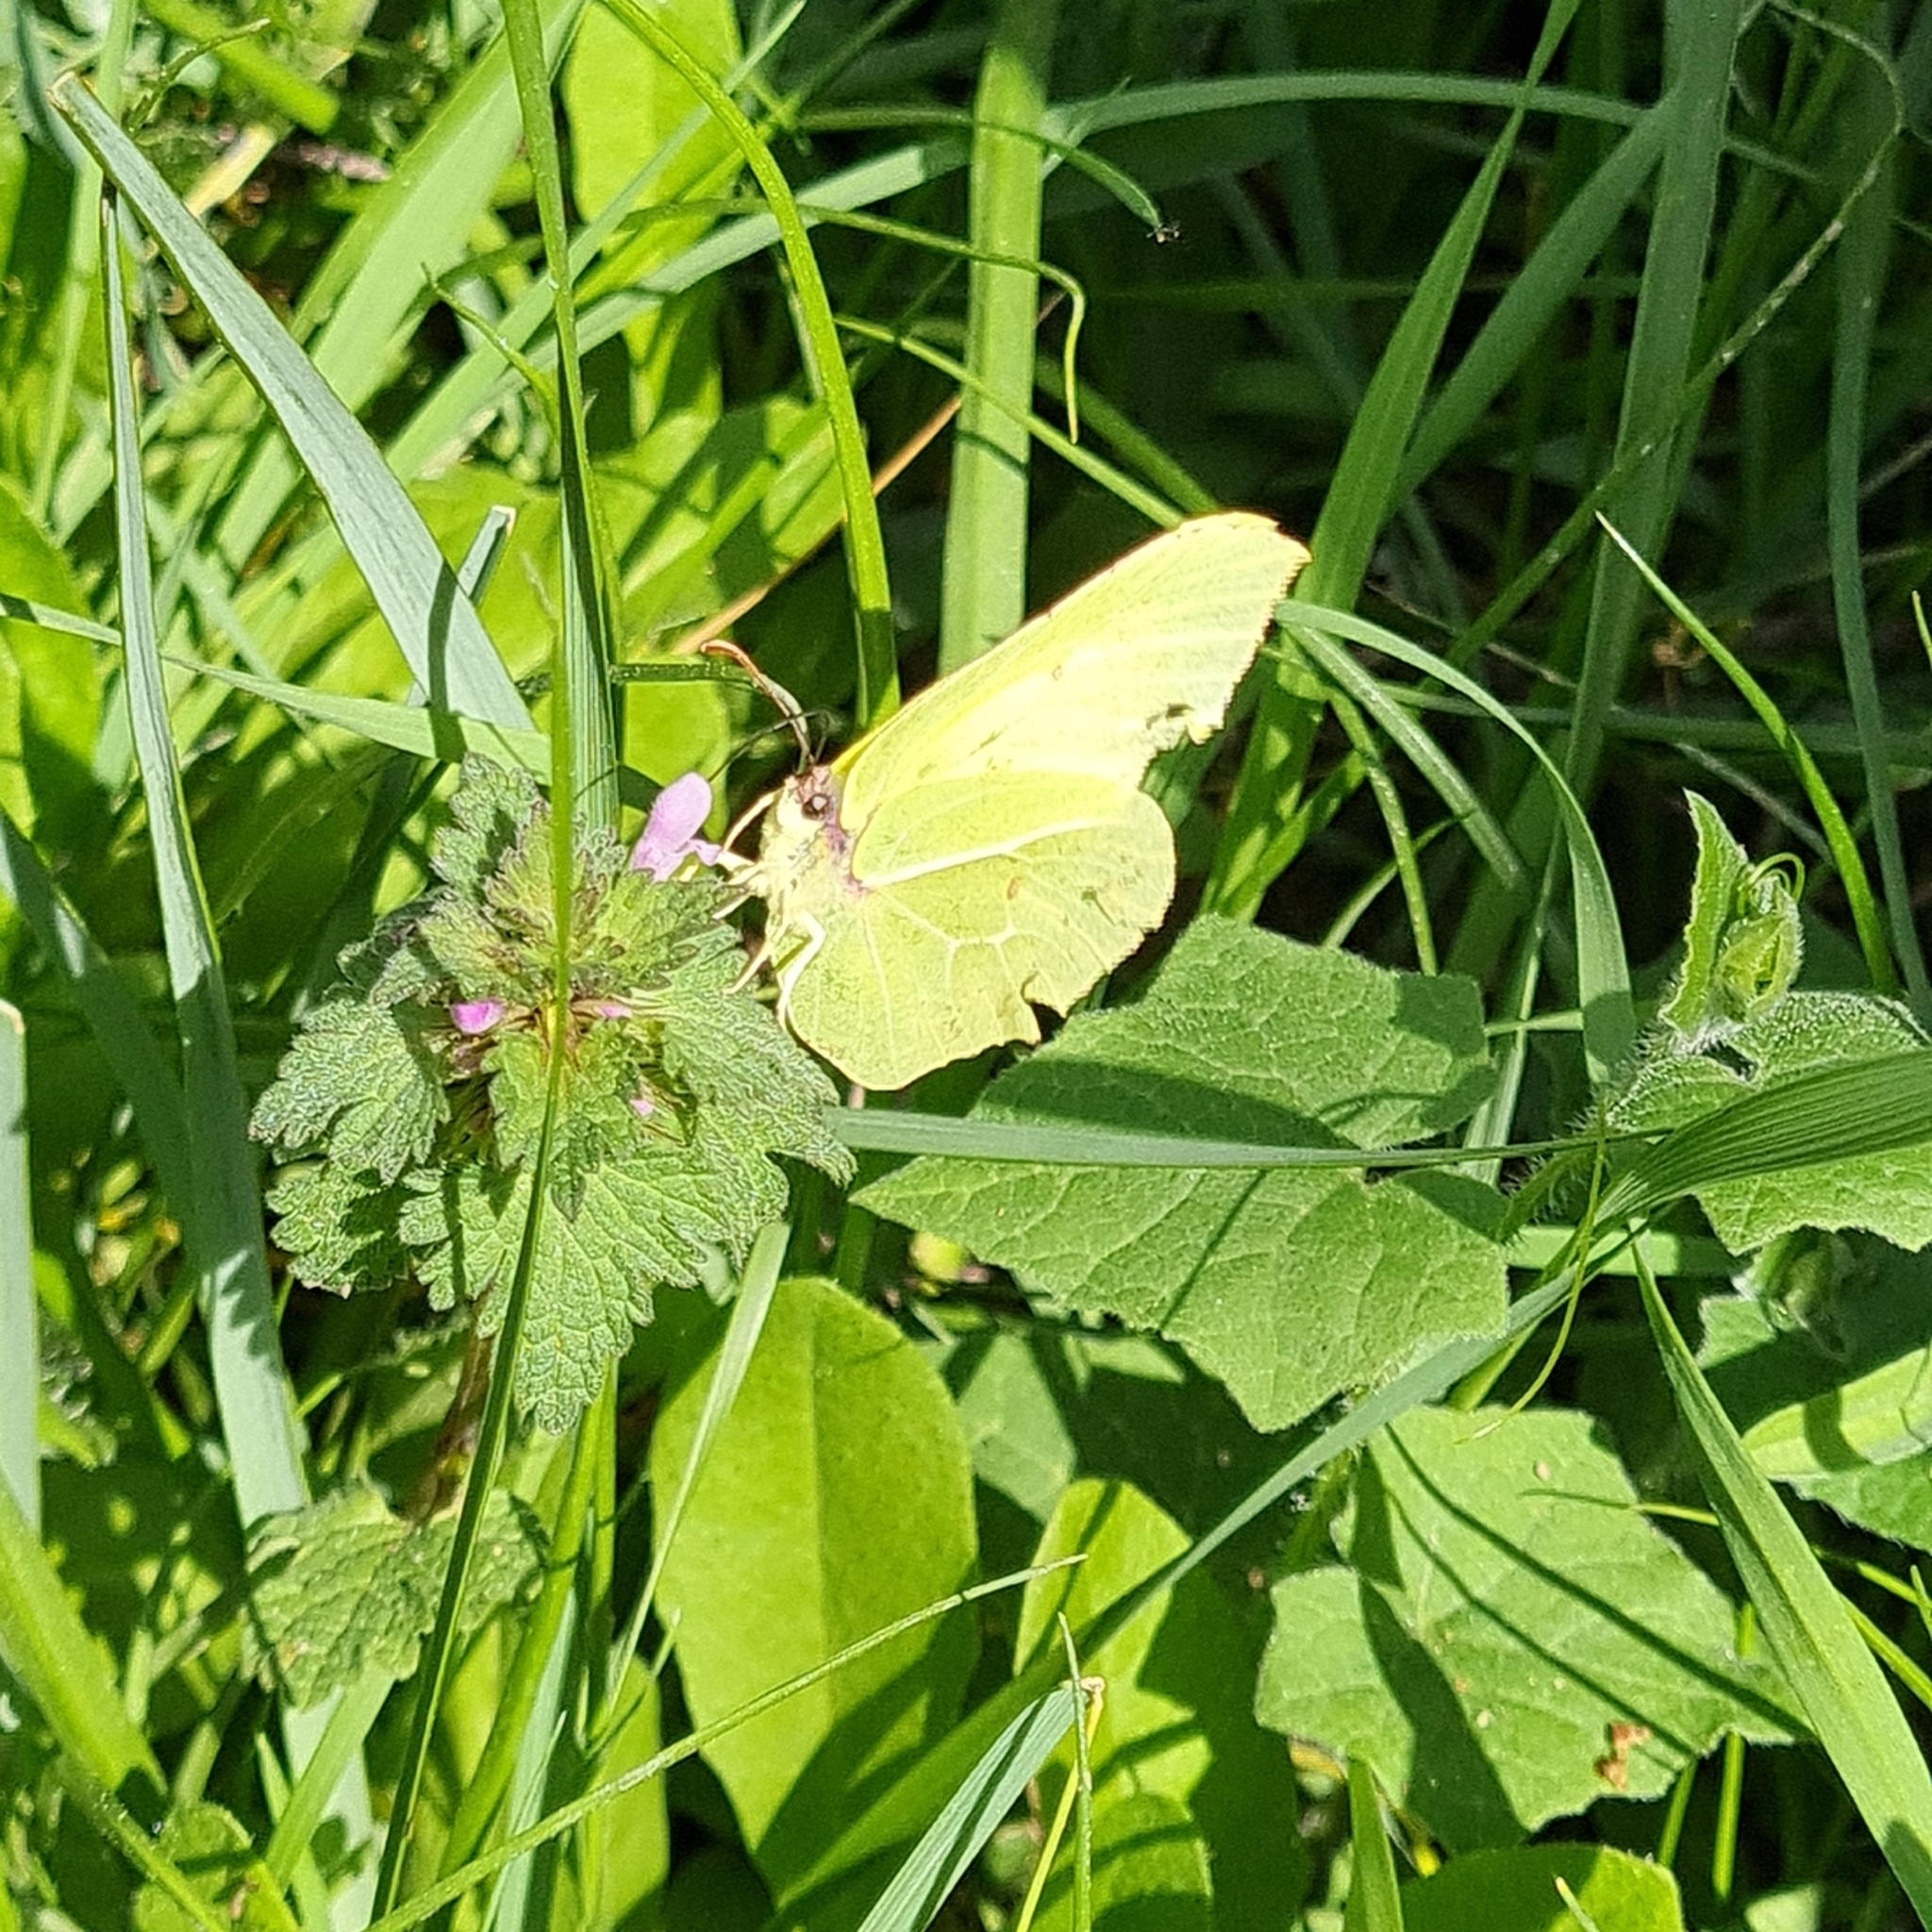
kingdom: Animalia
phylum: Arthropoda
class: Insecta
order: Lepidoptera
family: Pieridae
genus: Gonepteryx
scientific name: Gonepteryx cleopatra
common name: Cleopatra
